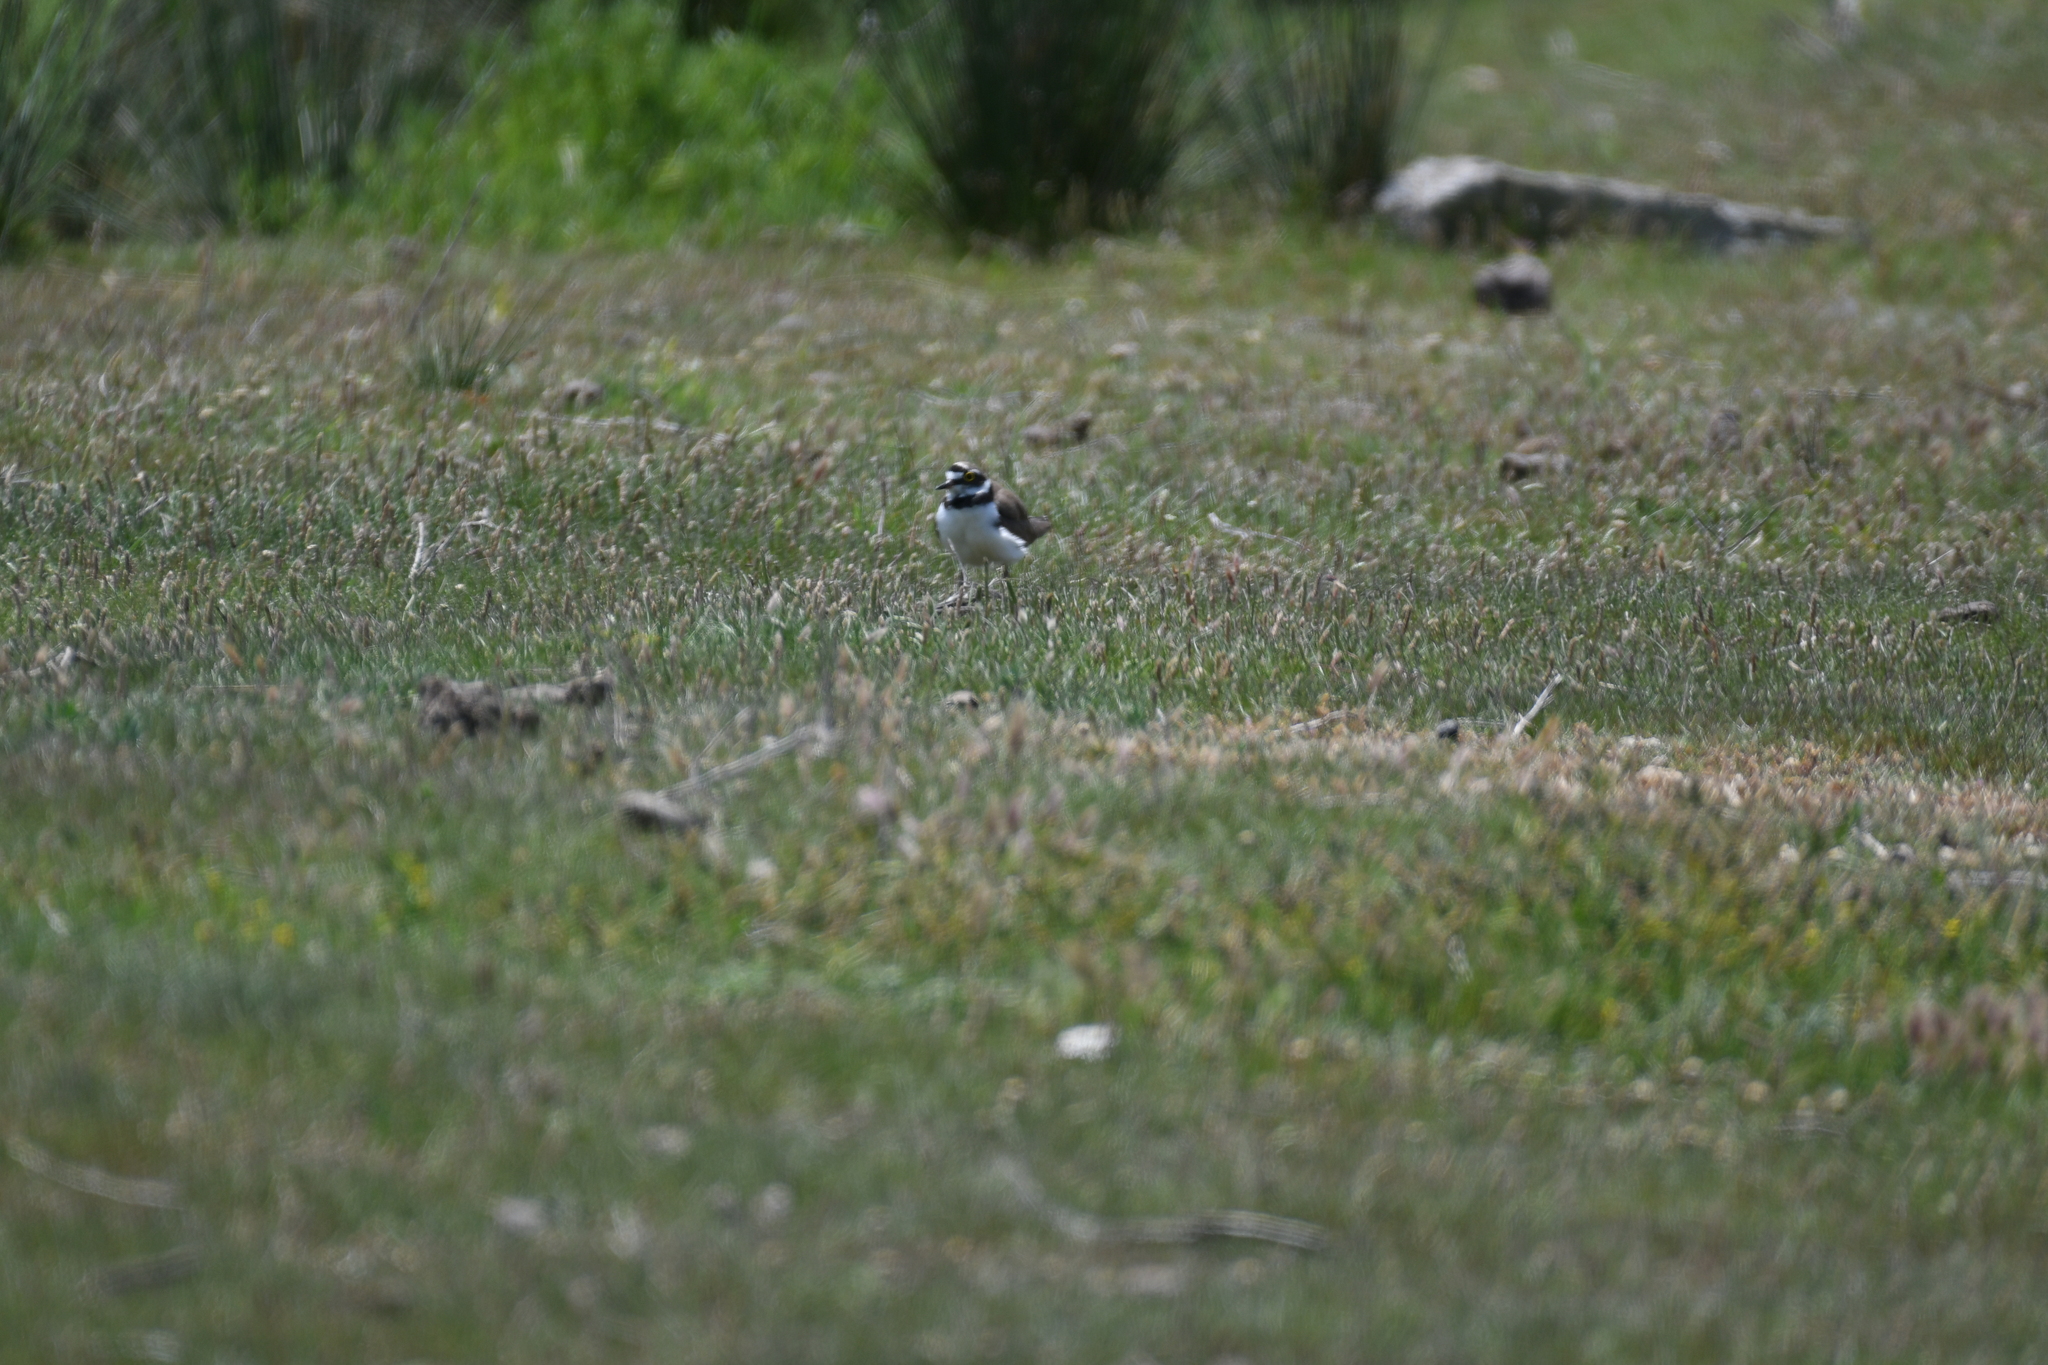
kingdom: Animalia
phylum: Chordata
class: Aves
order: Charadriiformes
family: Charadriidae
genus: Charadrius
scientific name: Charadrius dubius
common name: Little ringed plover
